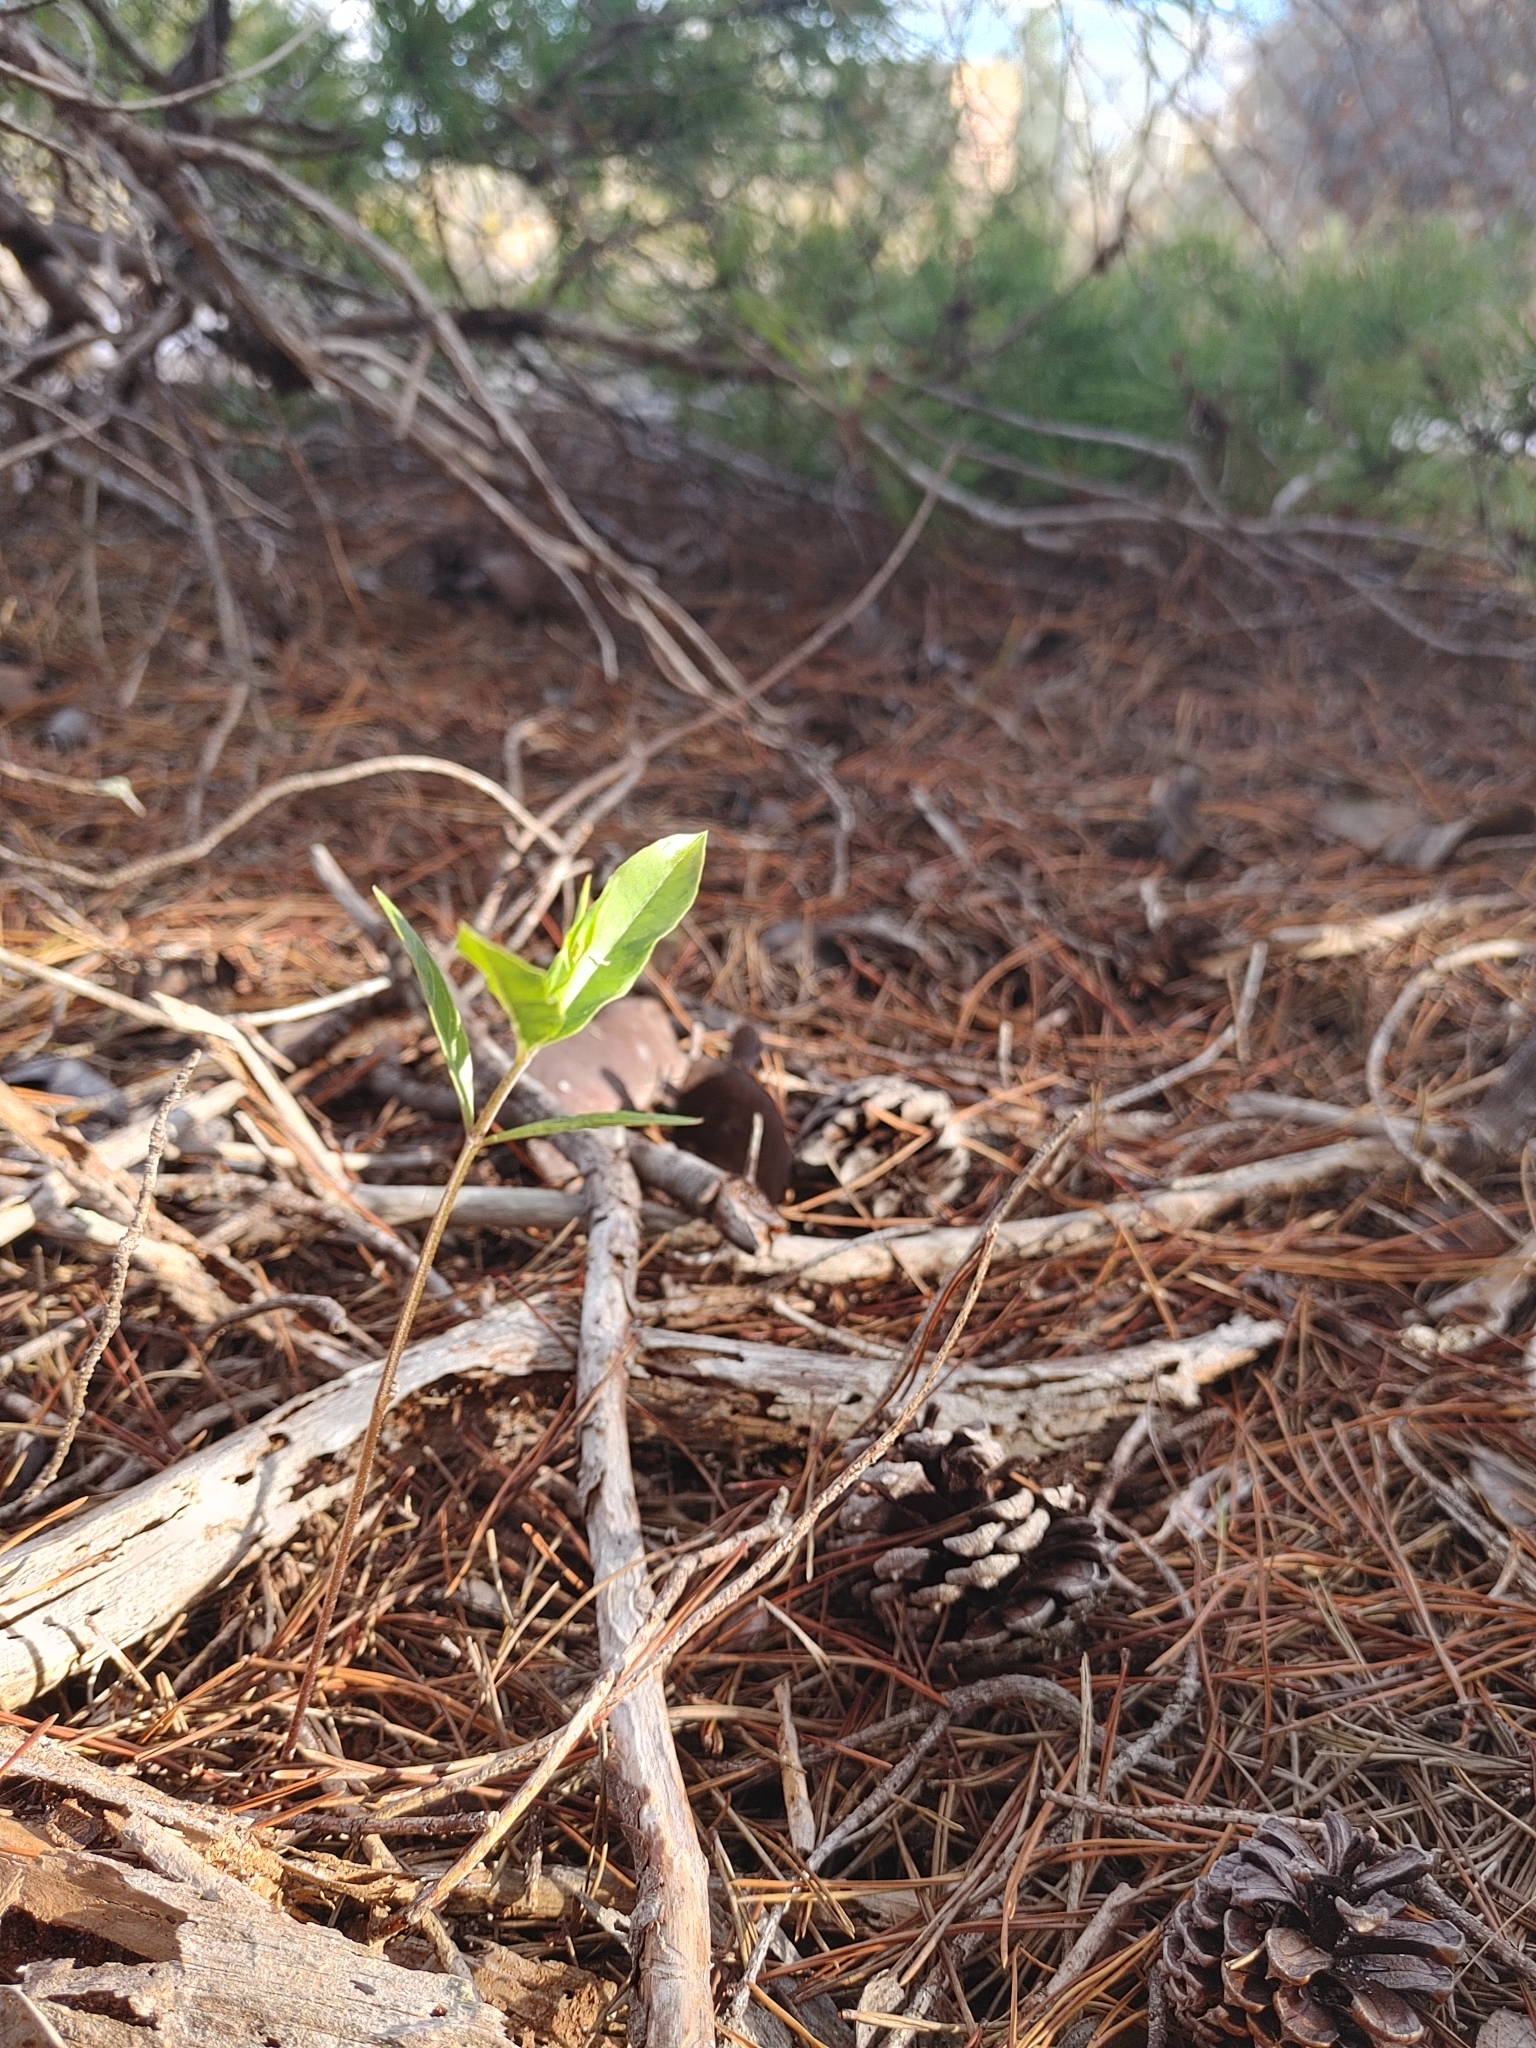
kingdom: Plantae
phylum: Tracheophyta
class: Magnoliopsida
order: Gentianales
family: Apocynaceae
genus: Asclepias
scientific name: Asclepias curtissii
